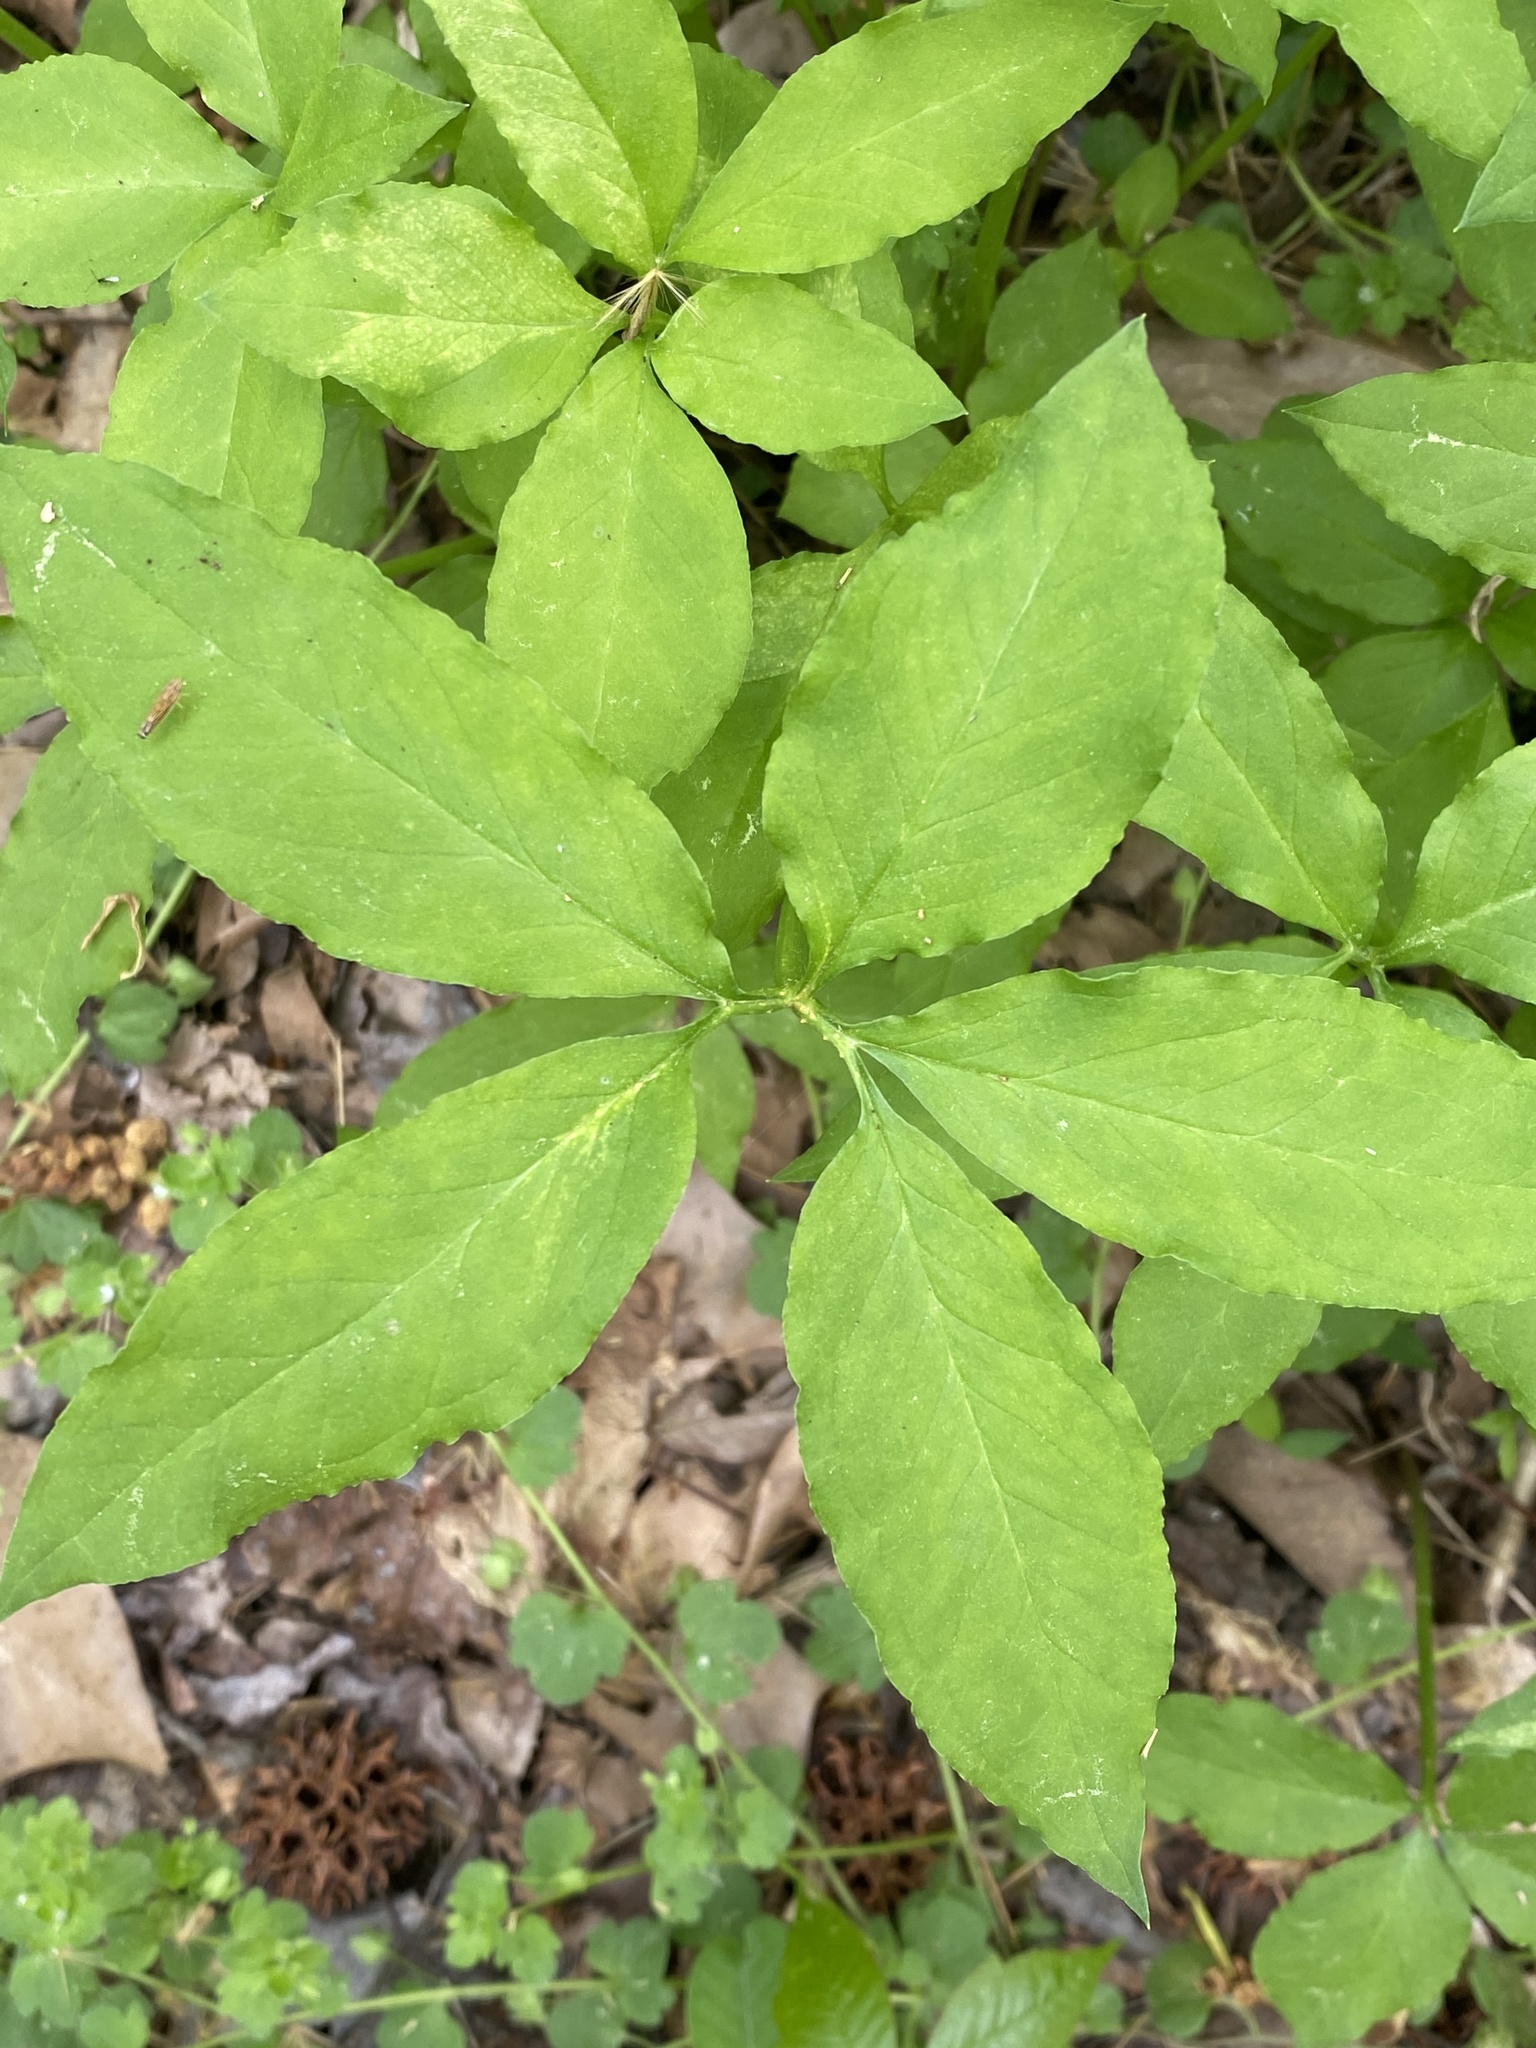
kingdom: Plantae
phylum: Tracheophyta
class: Liliopsida
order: Alismatales
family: Araceae
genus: Arisaema
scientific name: Arisaema dracontium
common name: Dragon-arum
